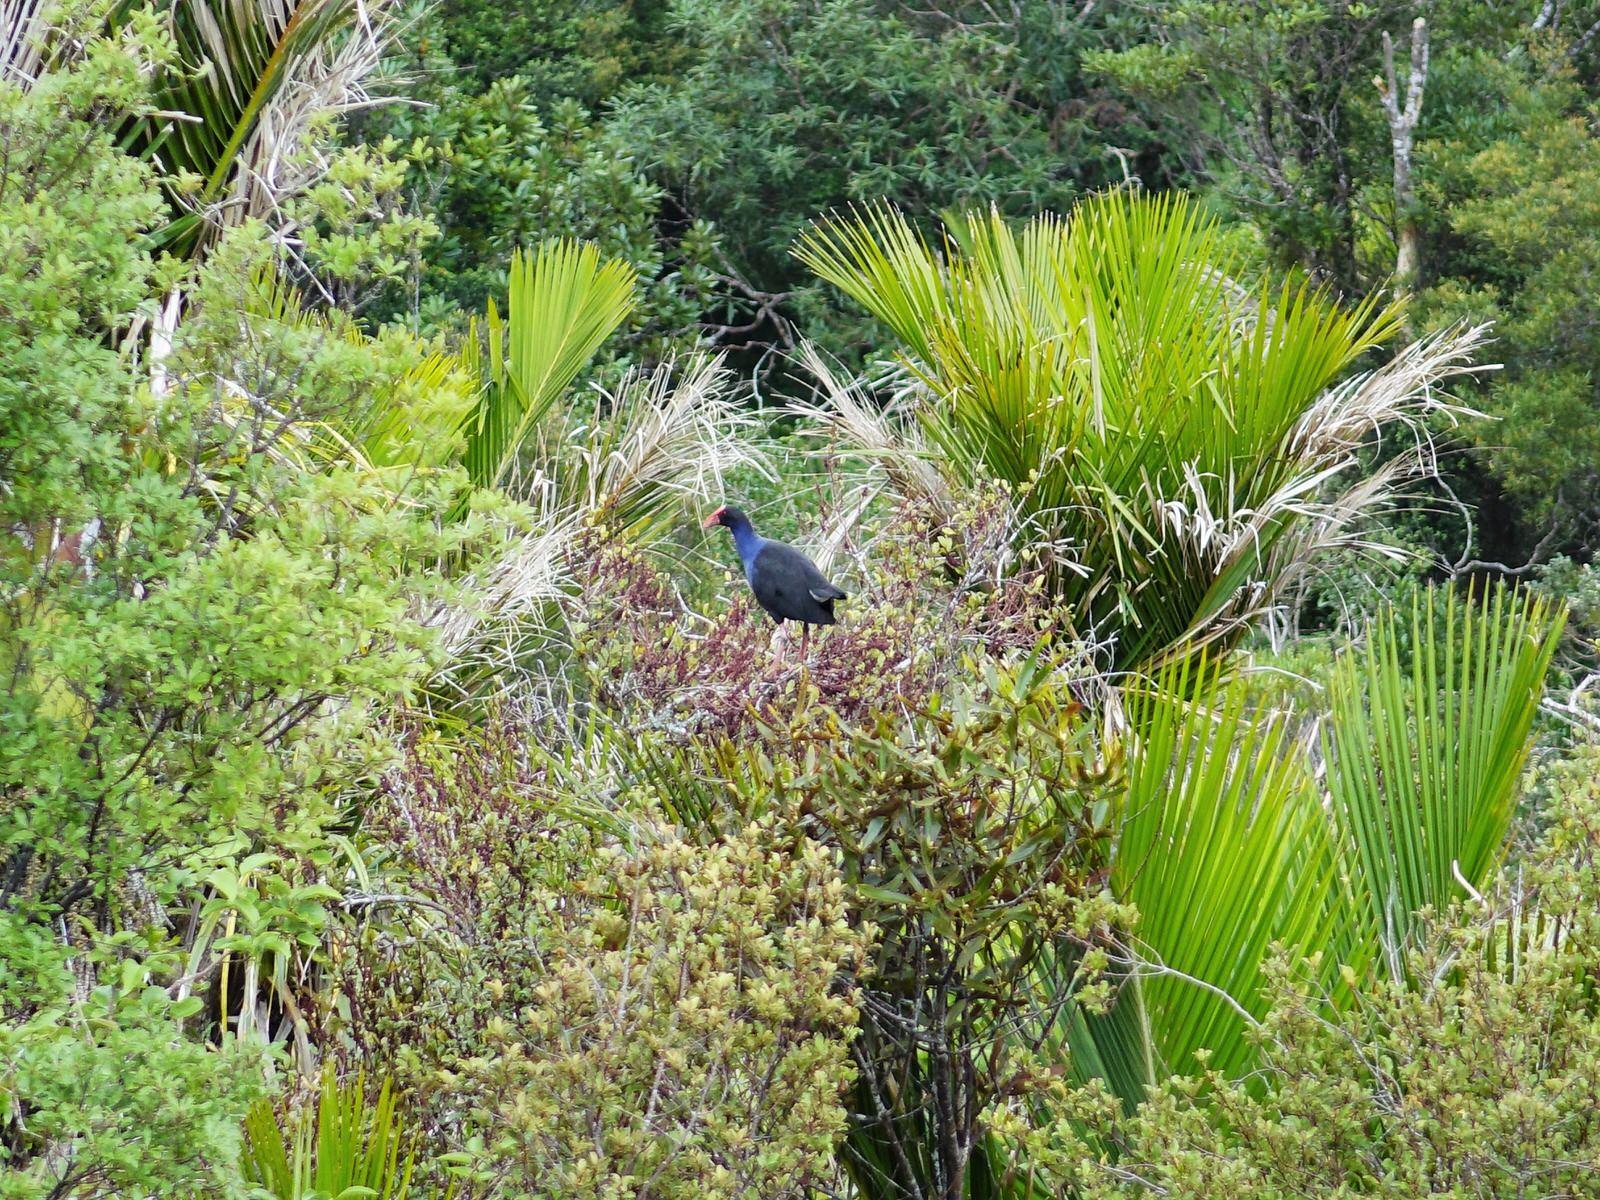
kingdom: Animalia
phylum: Chordata
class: Aves
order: Gruiformes
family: Rallidae
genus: Porphyrio
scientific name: Porphyrio melanotus
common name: Australasian swamphen
